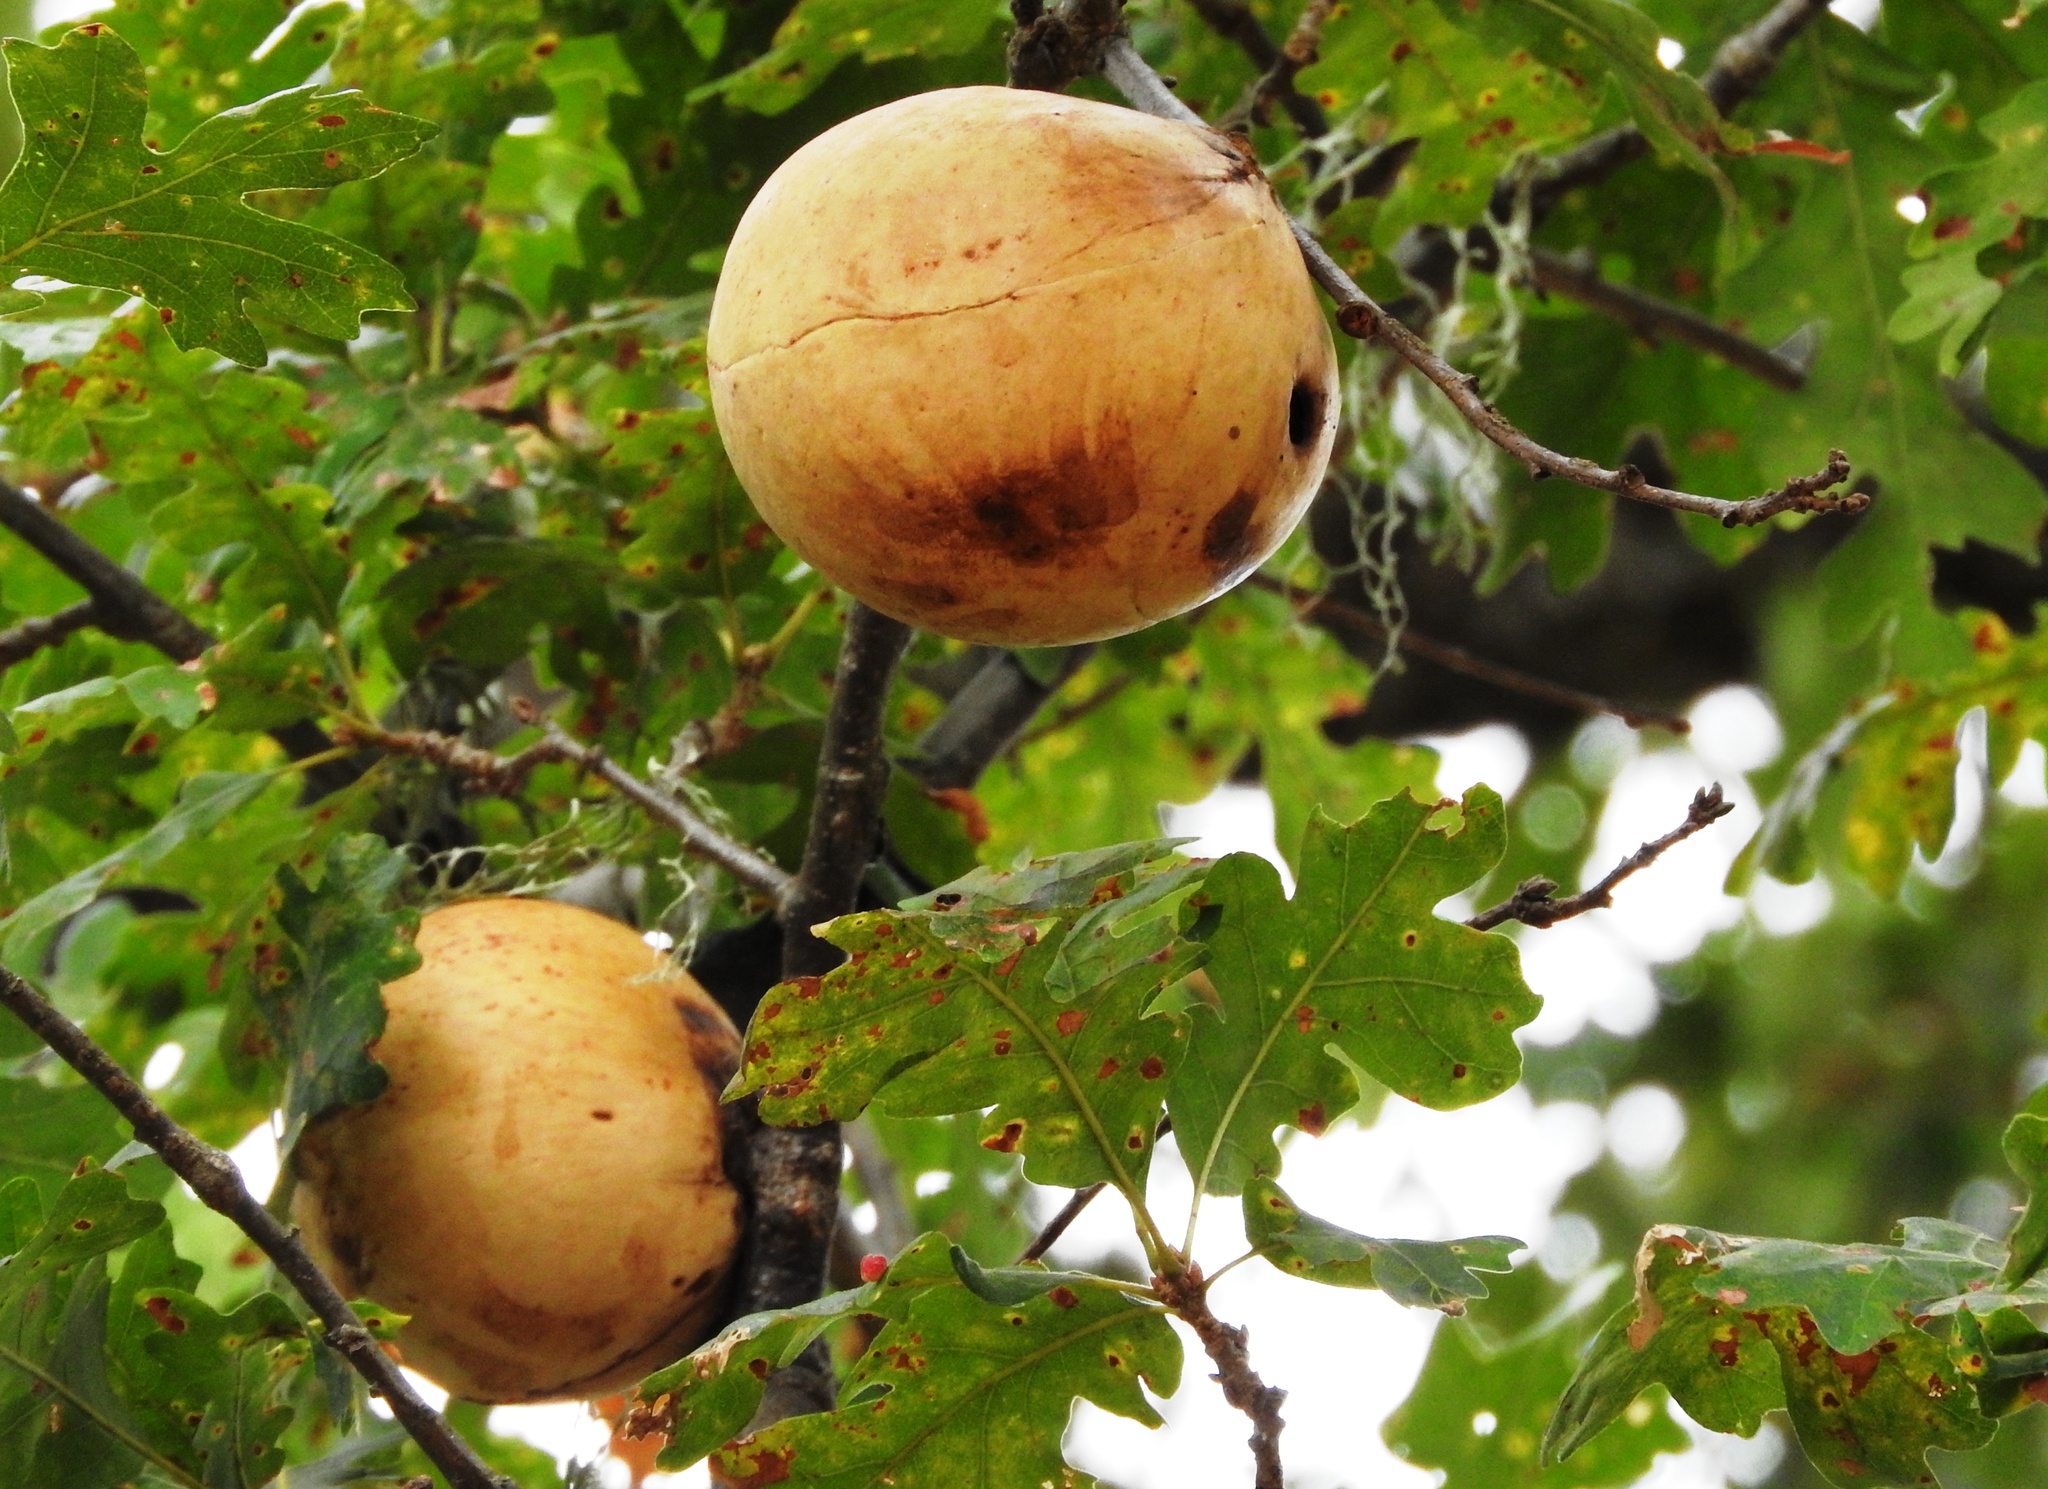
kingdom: Animalia
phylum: Arthropoda
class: Insecta
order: Hymenoptera
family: Cynipidae
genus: Andricus
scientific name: Andricus quercuscalifornicus
